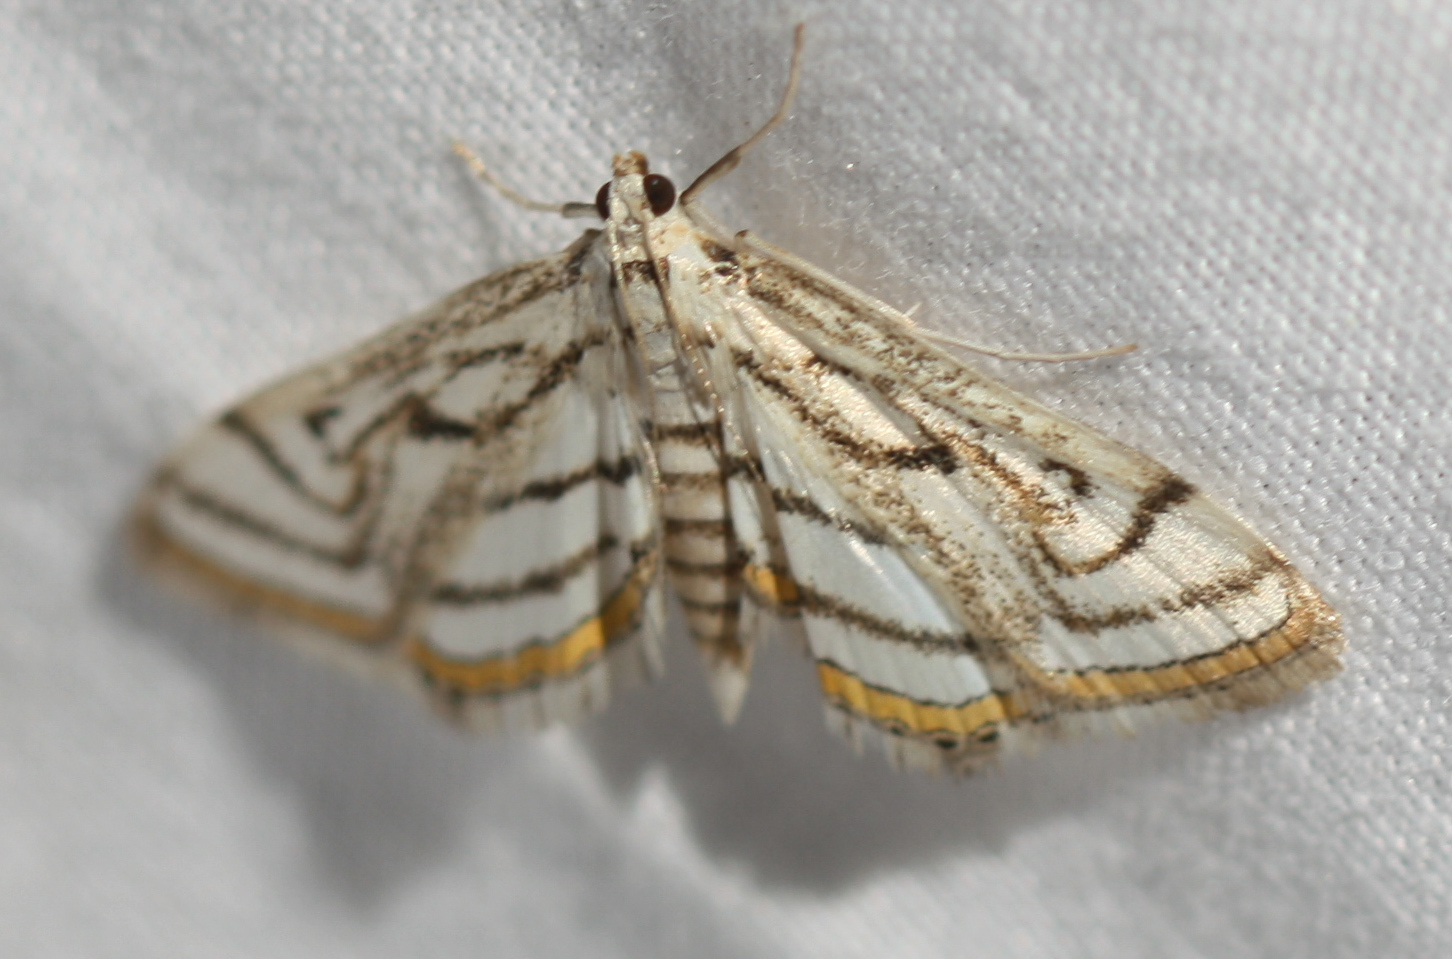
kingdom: Animalia
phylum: Arthropoda
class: Insecta
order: Lepidoptera
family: Crambidae
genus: Parapoynx
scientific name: Parapoynx badiusalis
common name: Chestnut-marked pondweed moth
